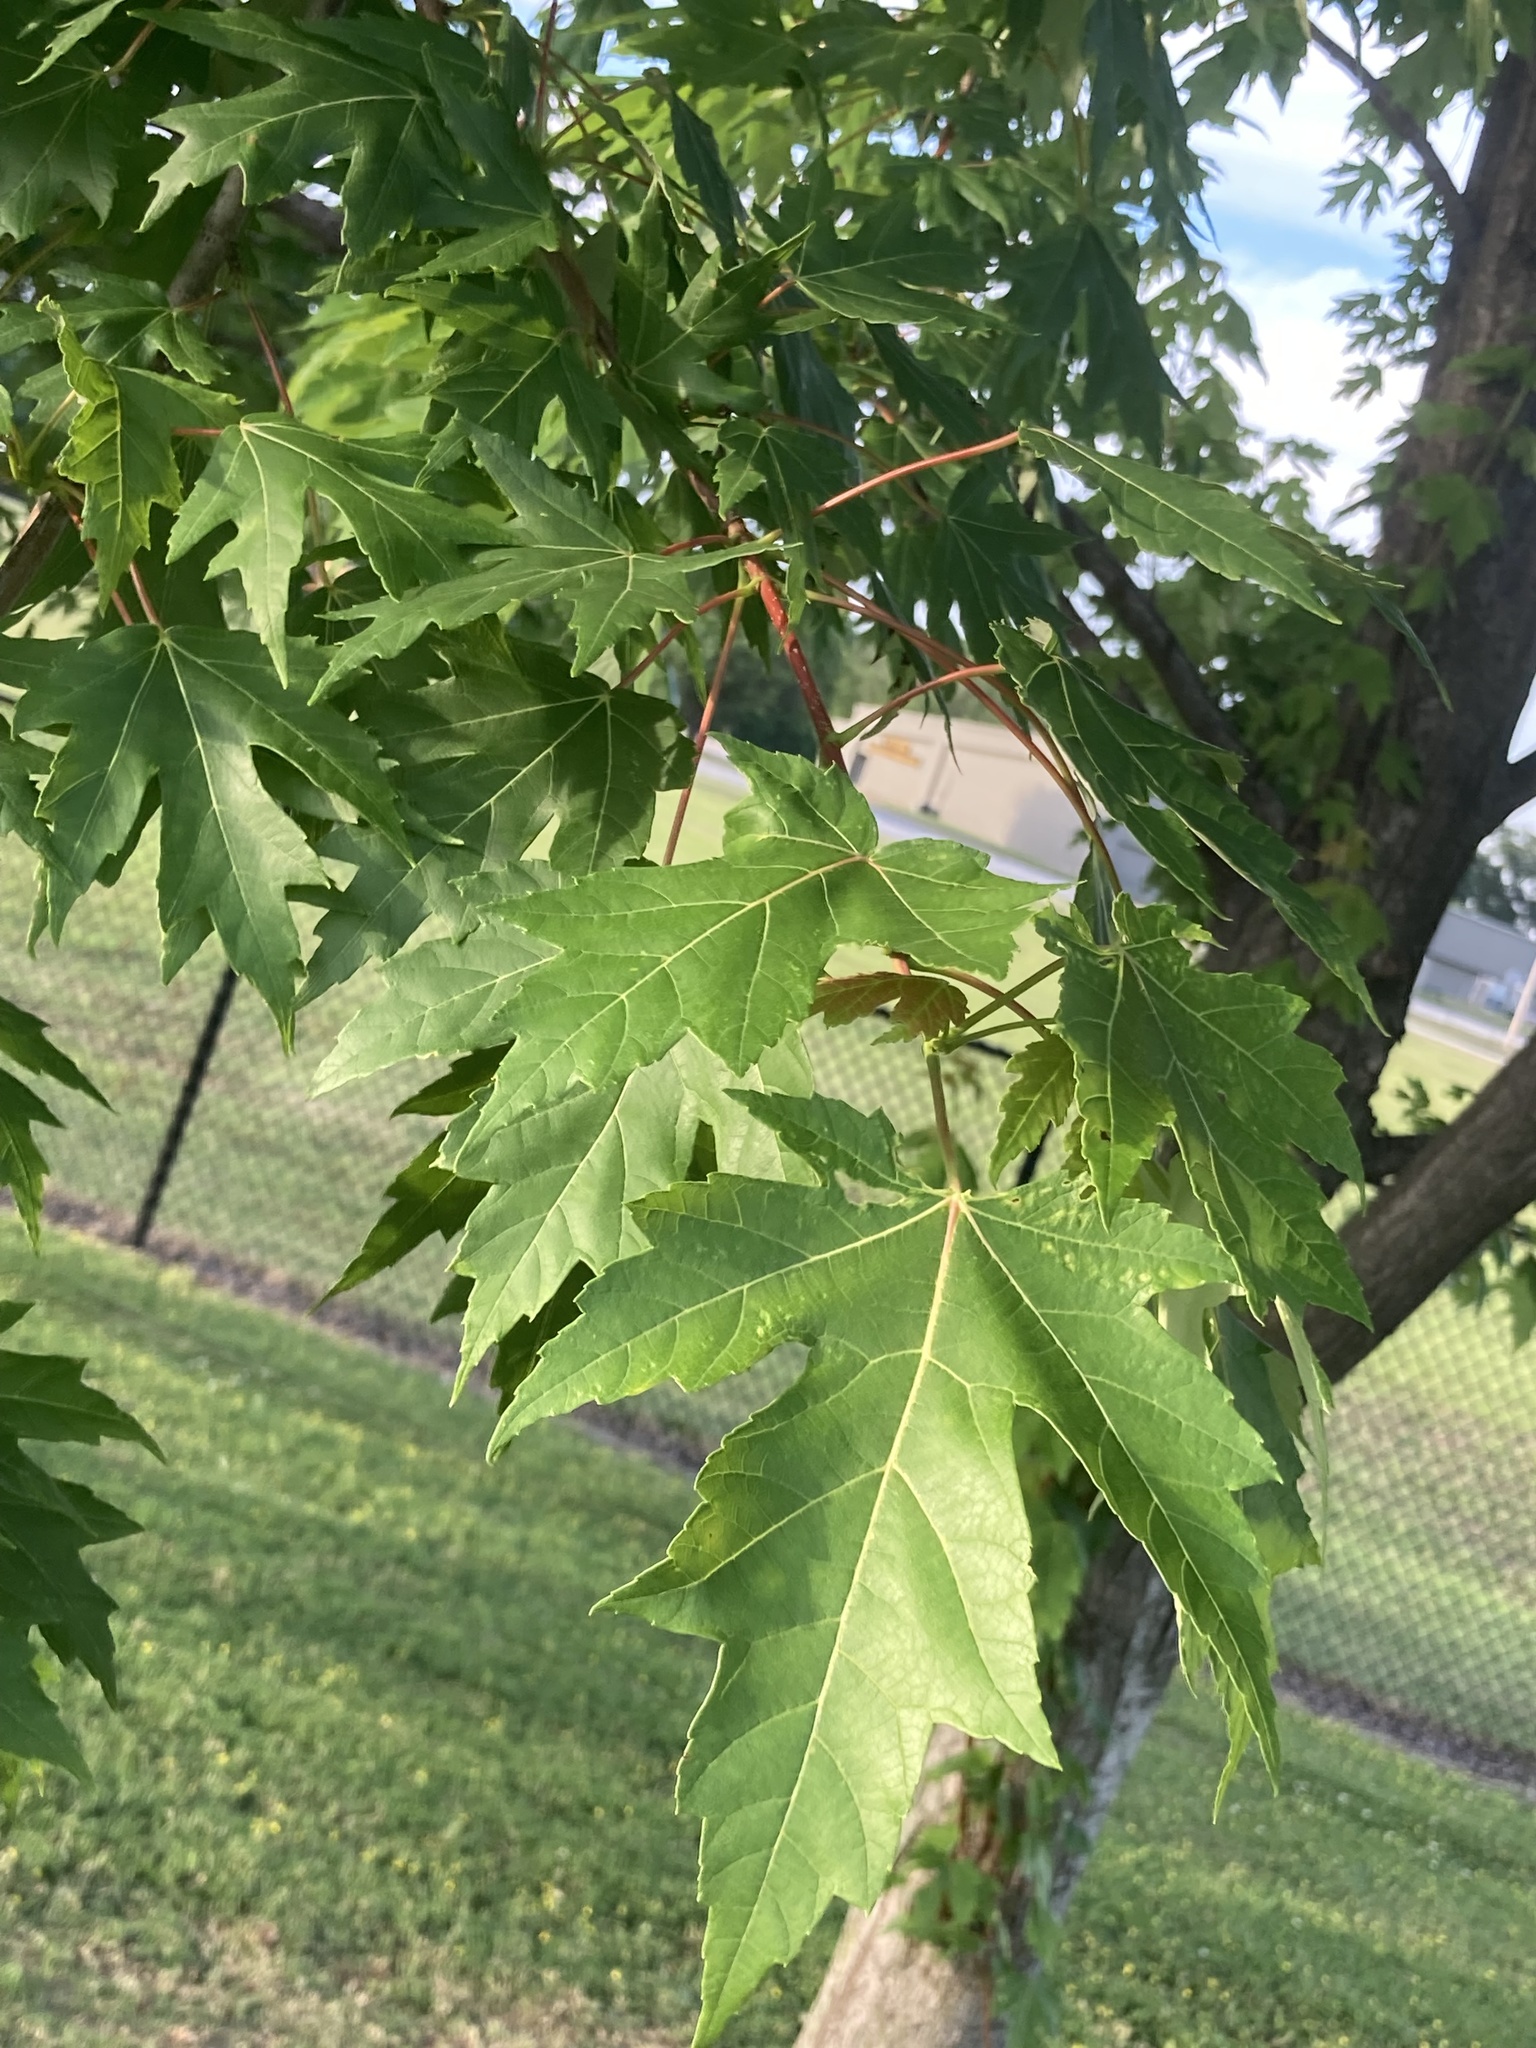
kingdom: Plantae
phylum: Tracheophyta
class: Magnoliopsida
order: Sapindales
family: Sapindaceae
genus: Acer
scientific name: Acer saccharinum
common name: Silver maple
